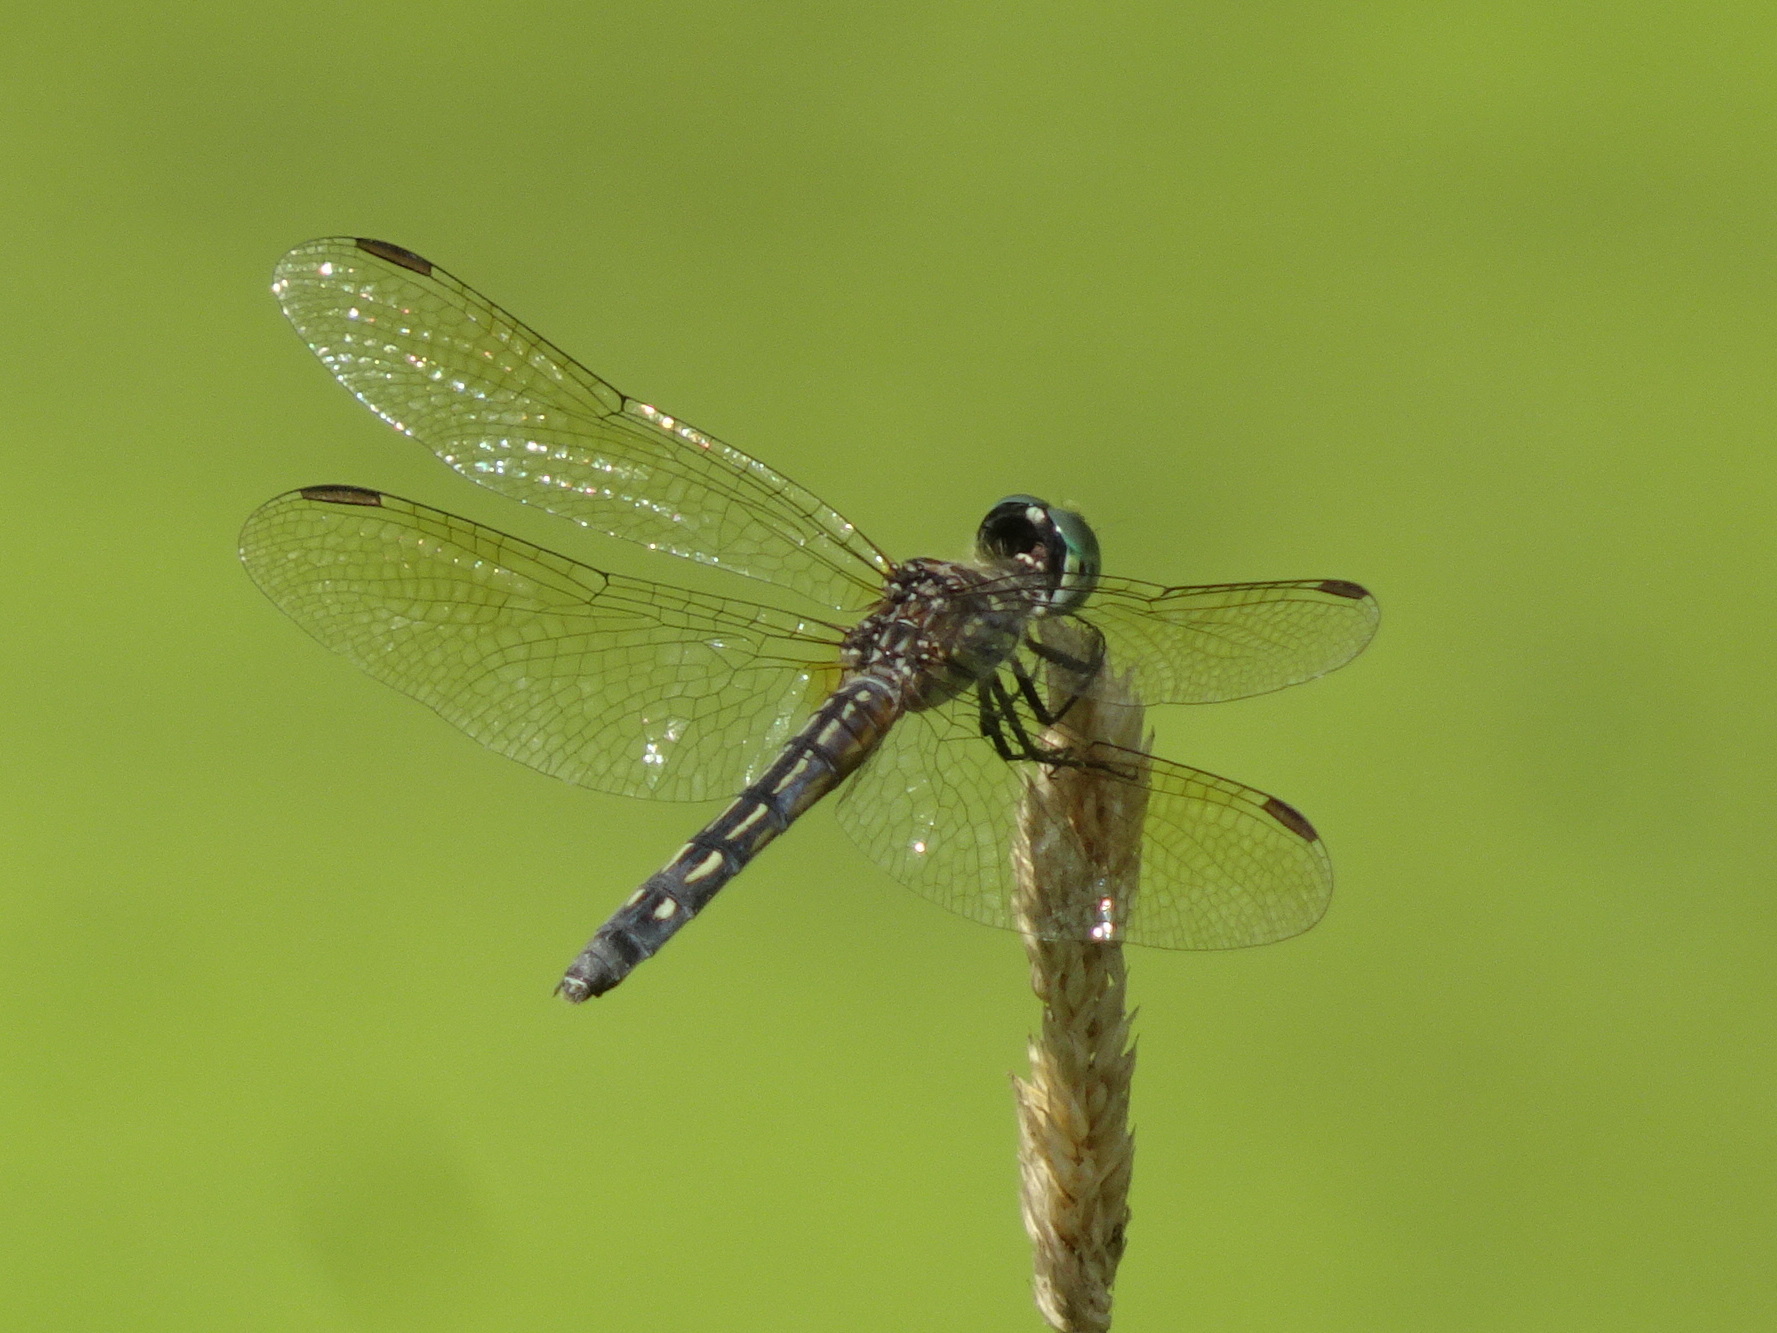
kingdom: Animalia
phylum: Arthropoda
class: Insecta
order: Odonata
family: Libellulidae
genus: Pachydiplax
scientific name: Pachydiplax longipennis
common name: Blue dasher
